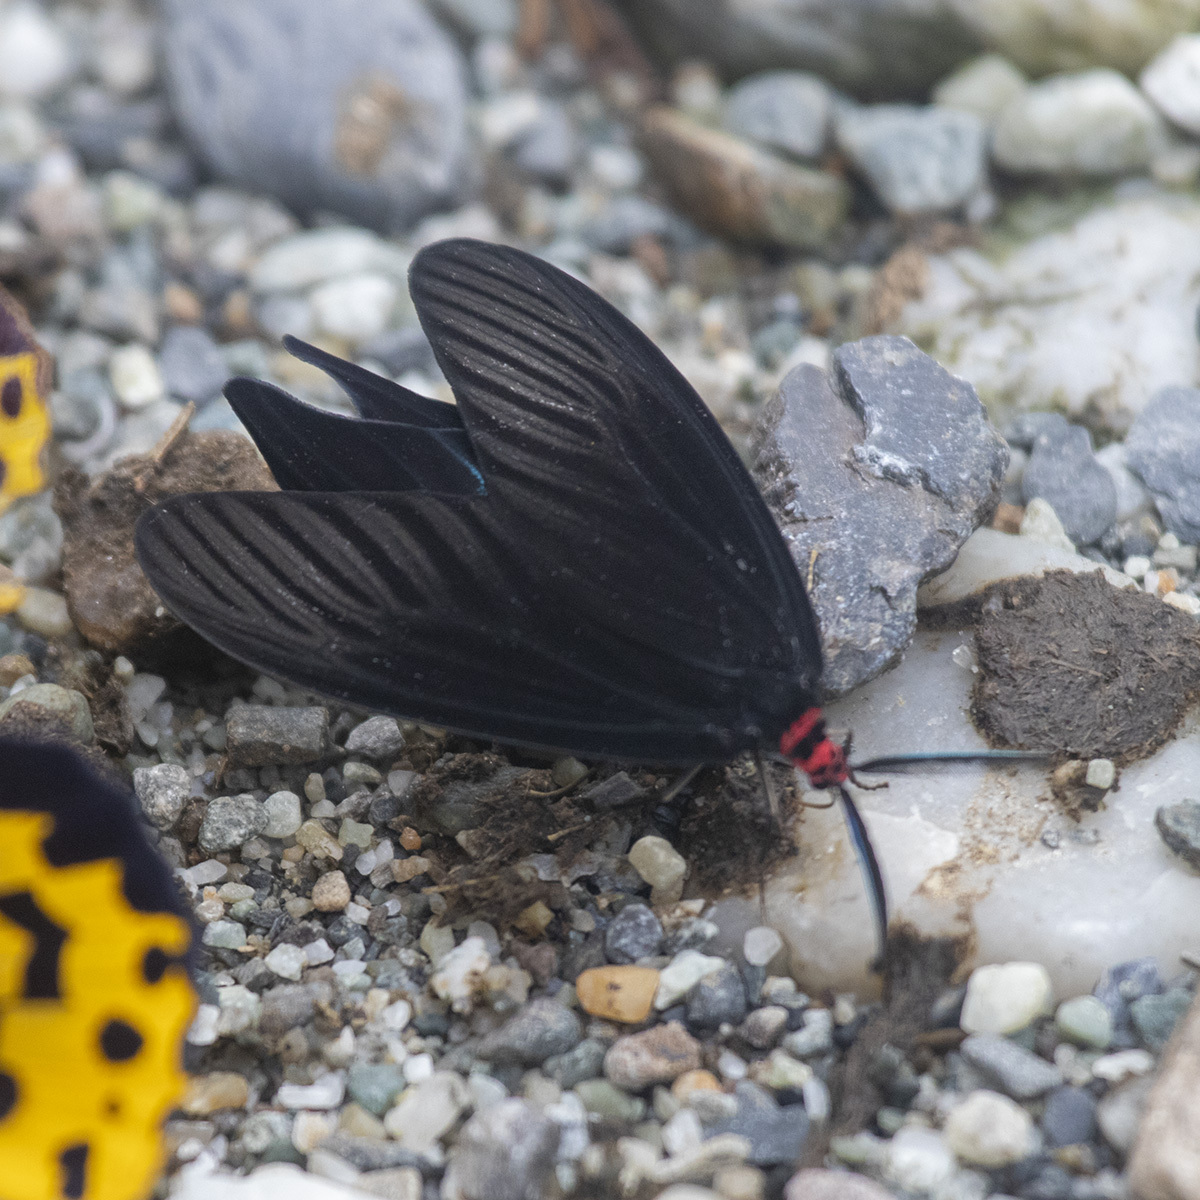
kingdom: Animalia
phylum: Arthropoda
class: Insecta
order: Lepidoptera
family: Zygaenidae
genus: Histia
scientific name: Histia flabellicornis
